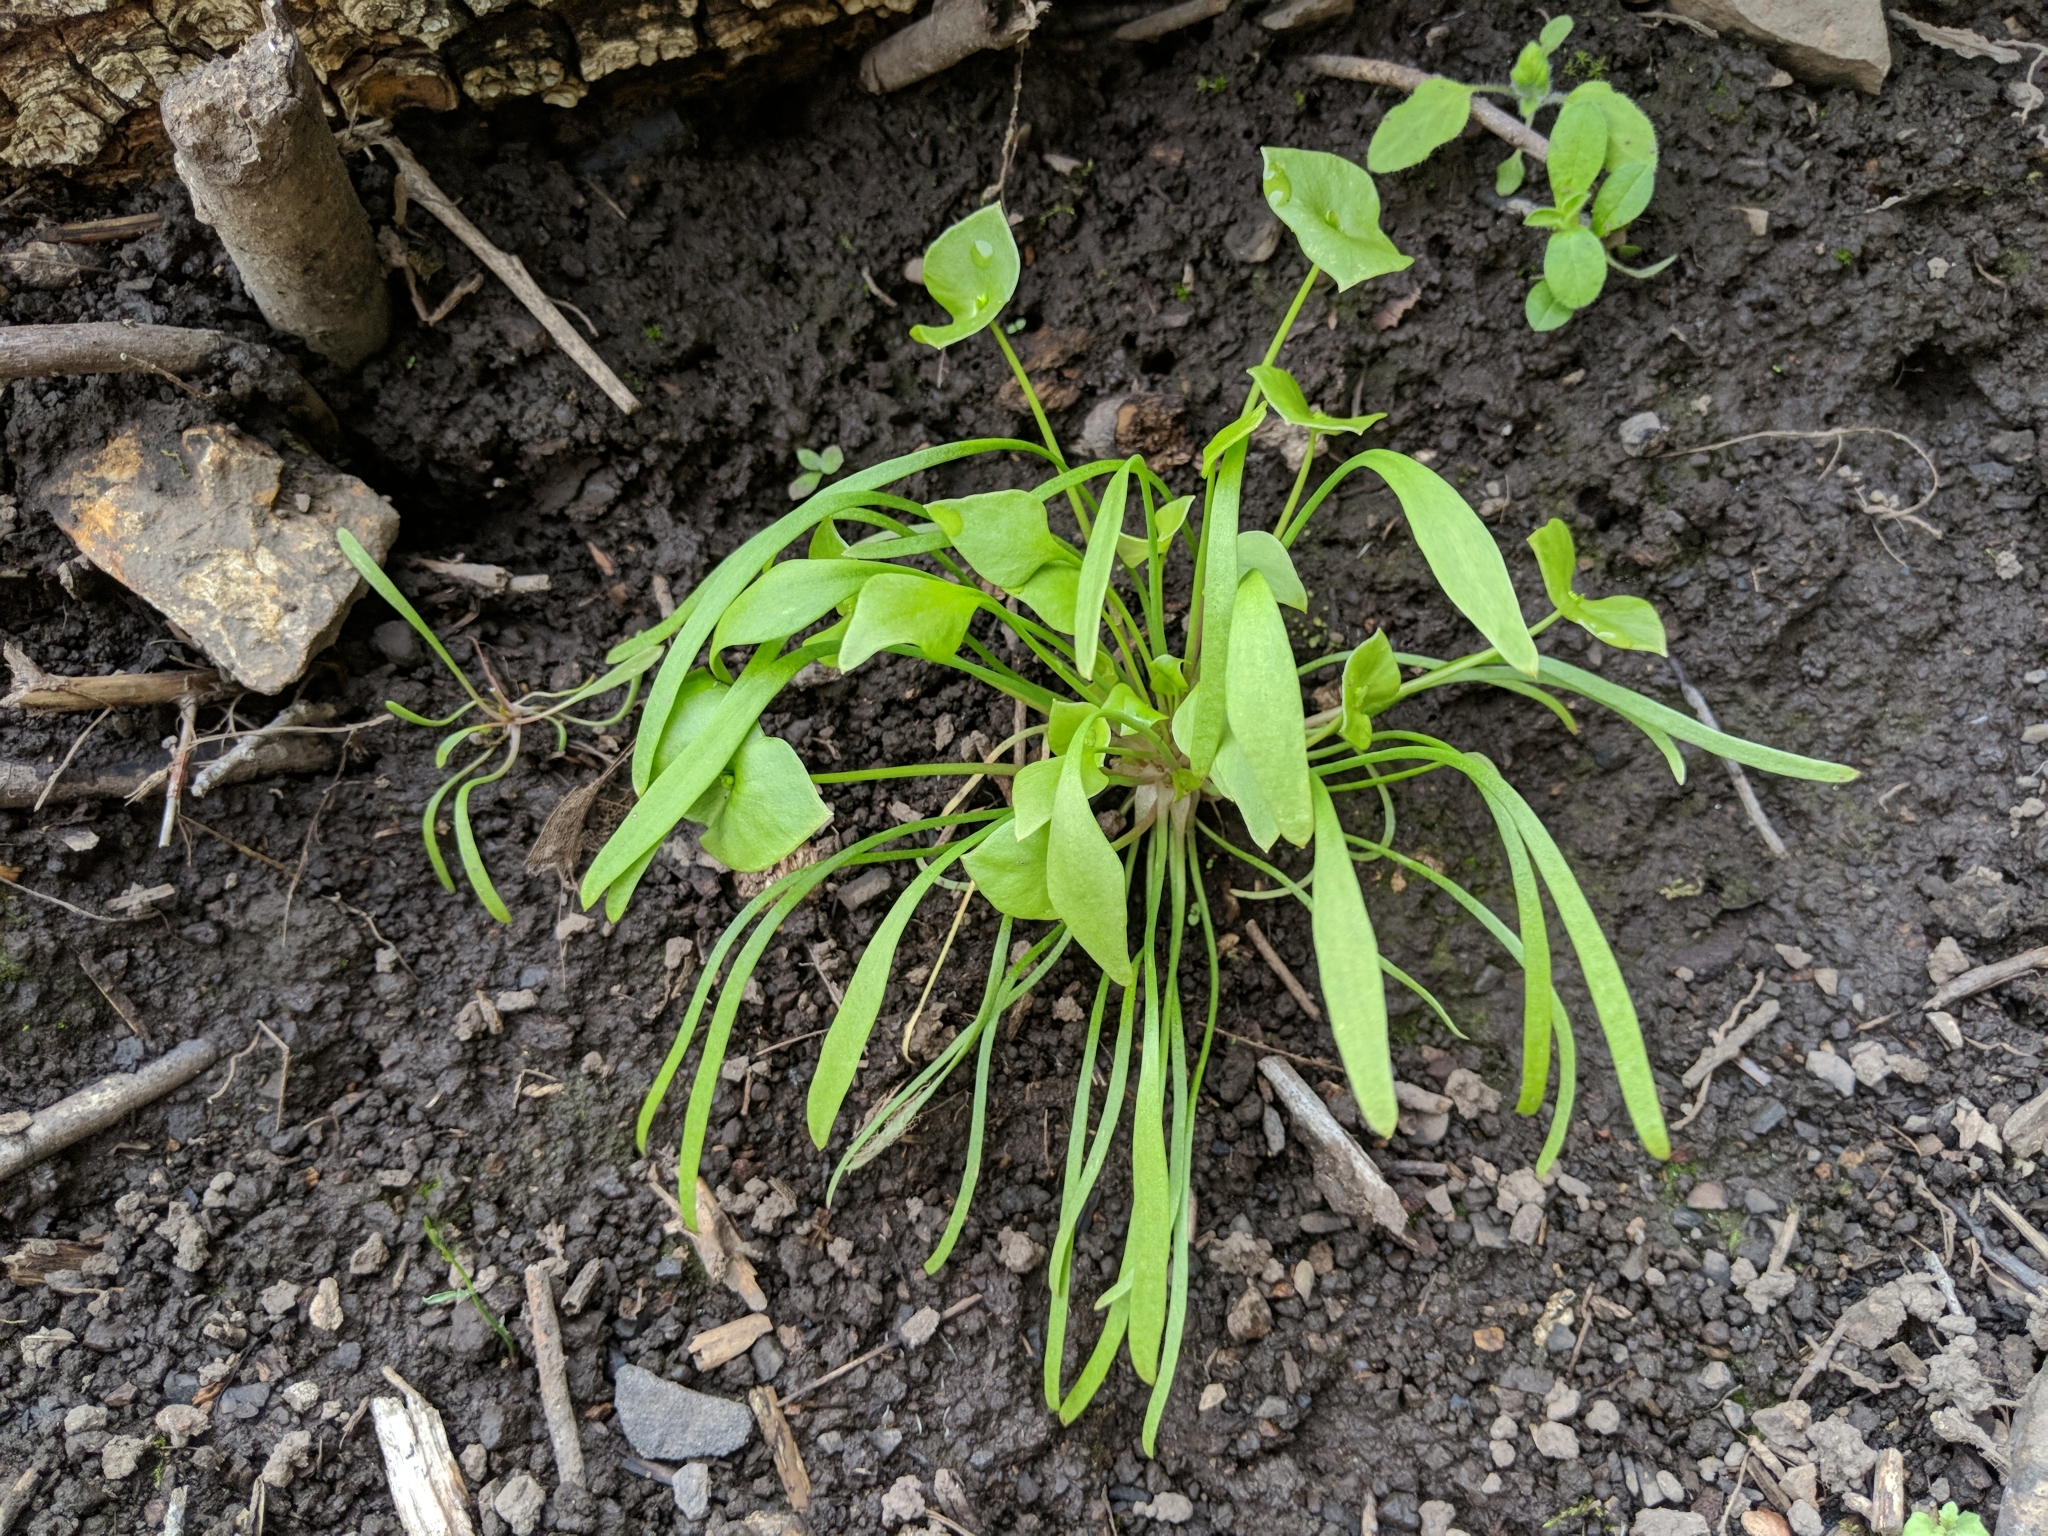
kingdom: Plantae
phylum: Tracheophyta
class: Magnoliopsida
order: Caryophyllales
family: Montiaceae
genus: Claytonia
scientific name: Claytonia perfoliata
